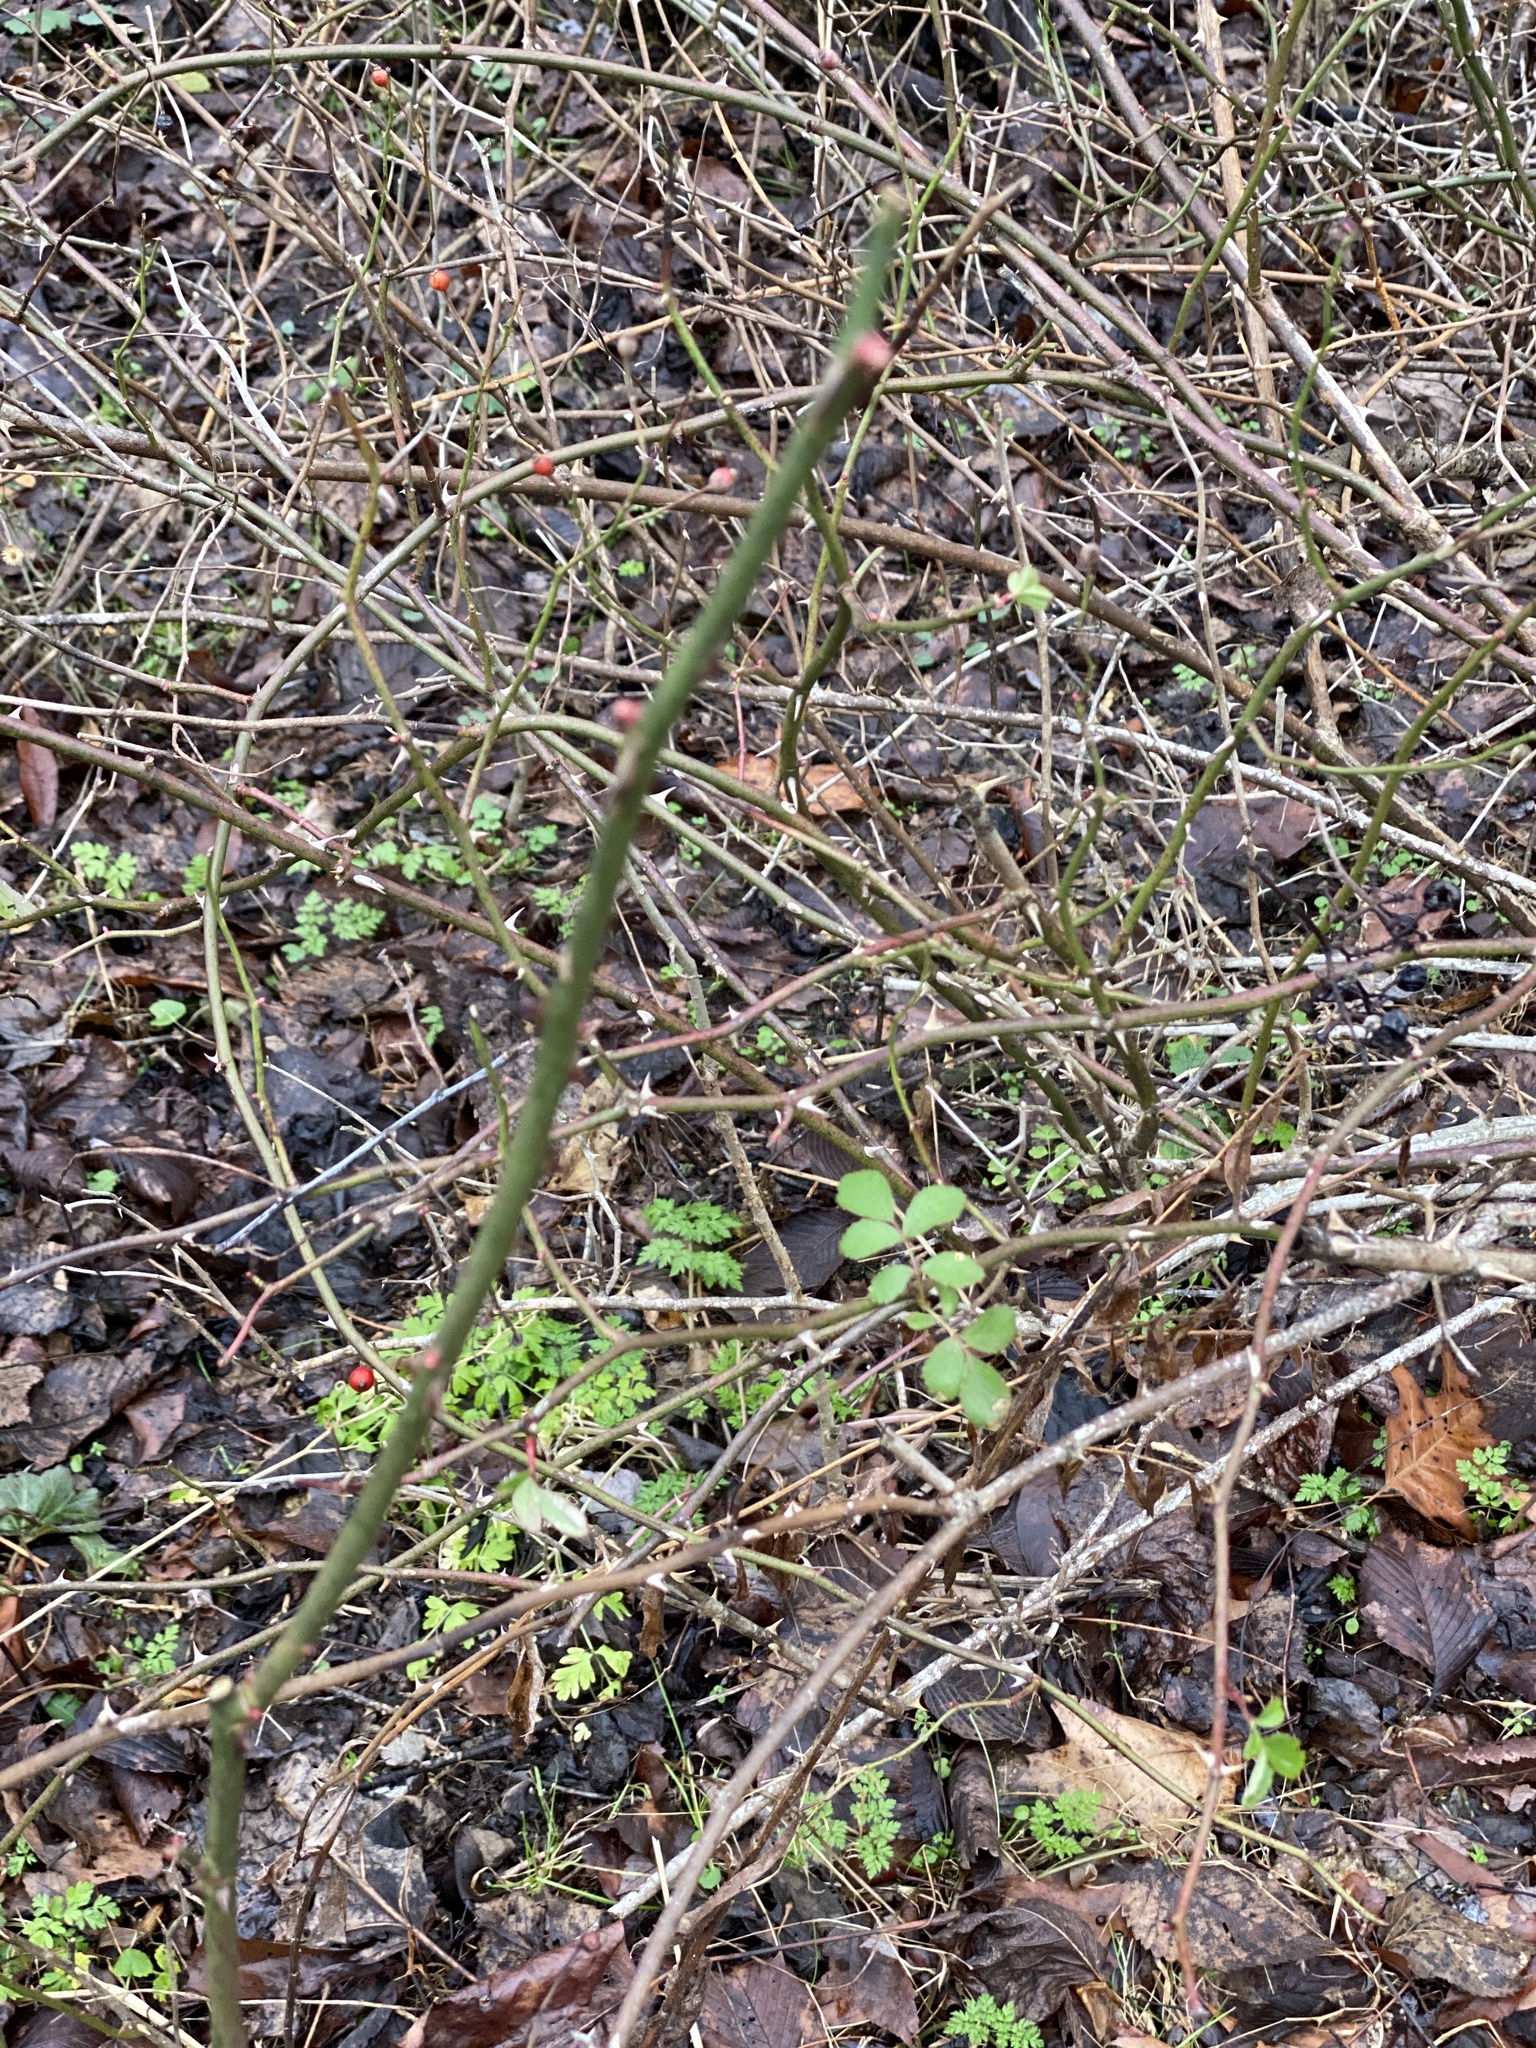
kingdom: Plantae
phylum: Tracheophyta
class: Magnoliopsida
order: Rosales
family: Rosaceae
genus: Rosa
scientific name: Rosa multiflora
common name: Multiflora rose
